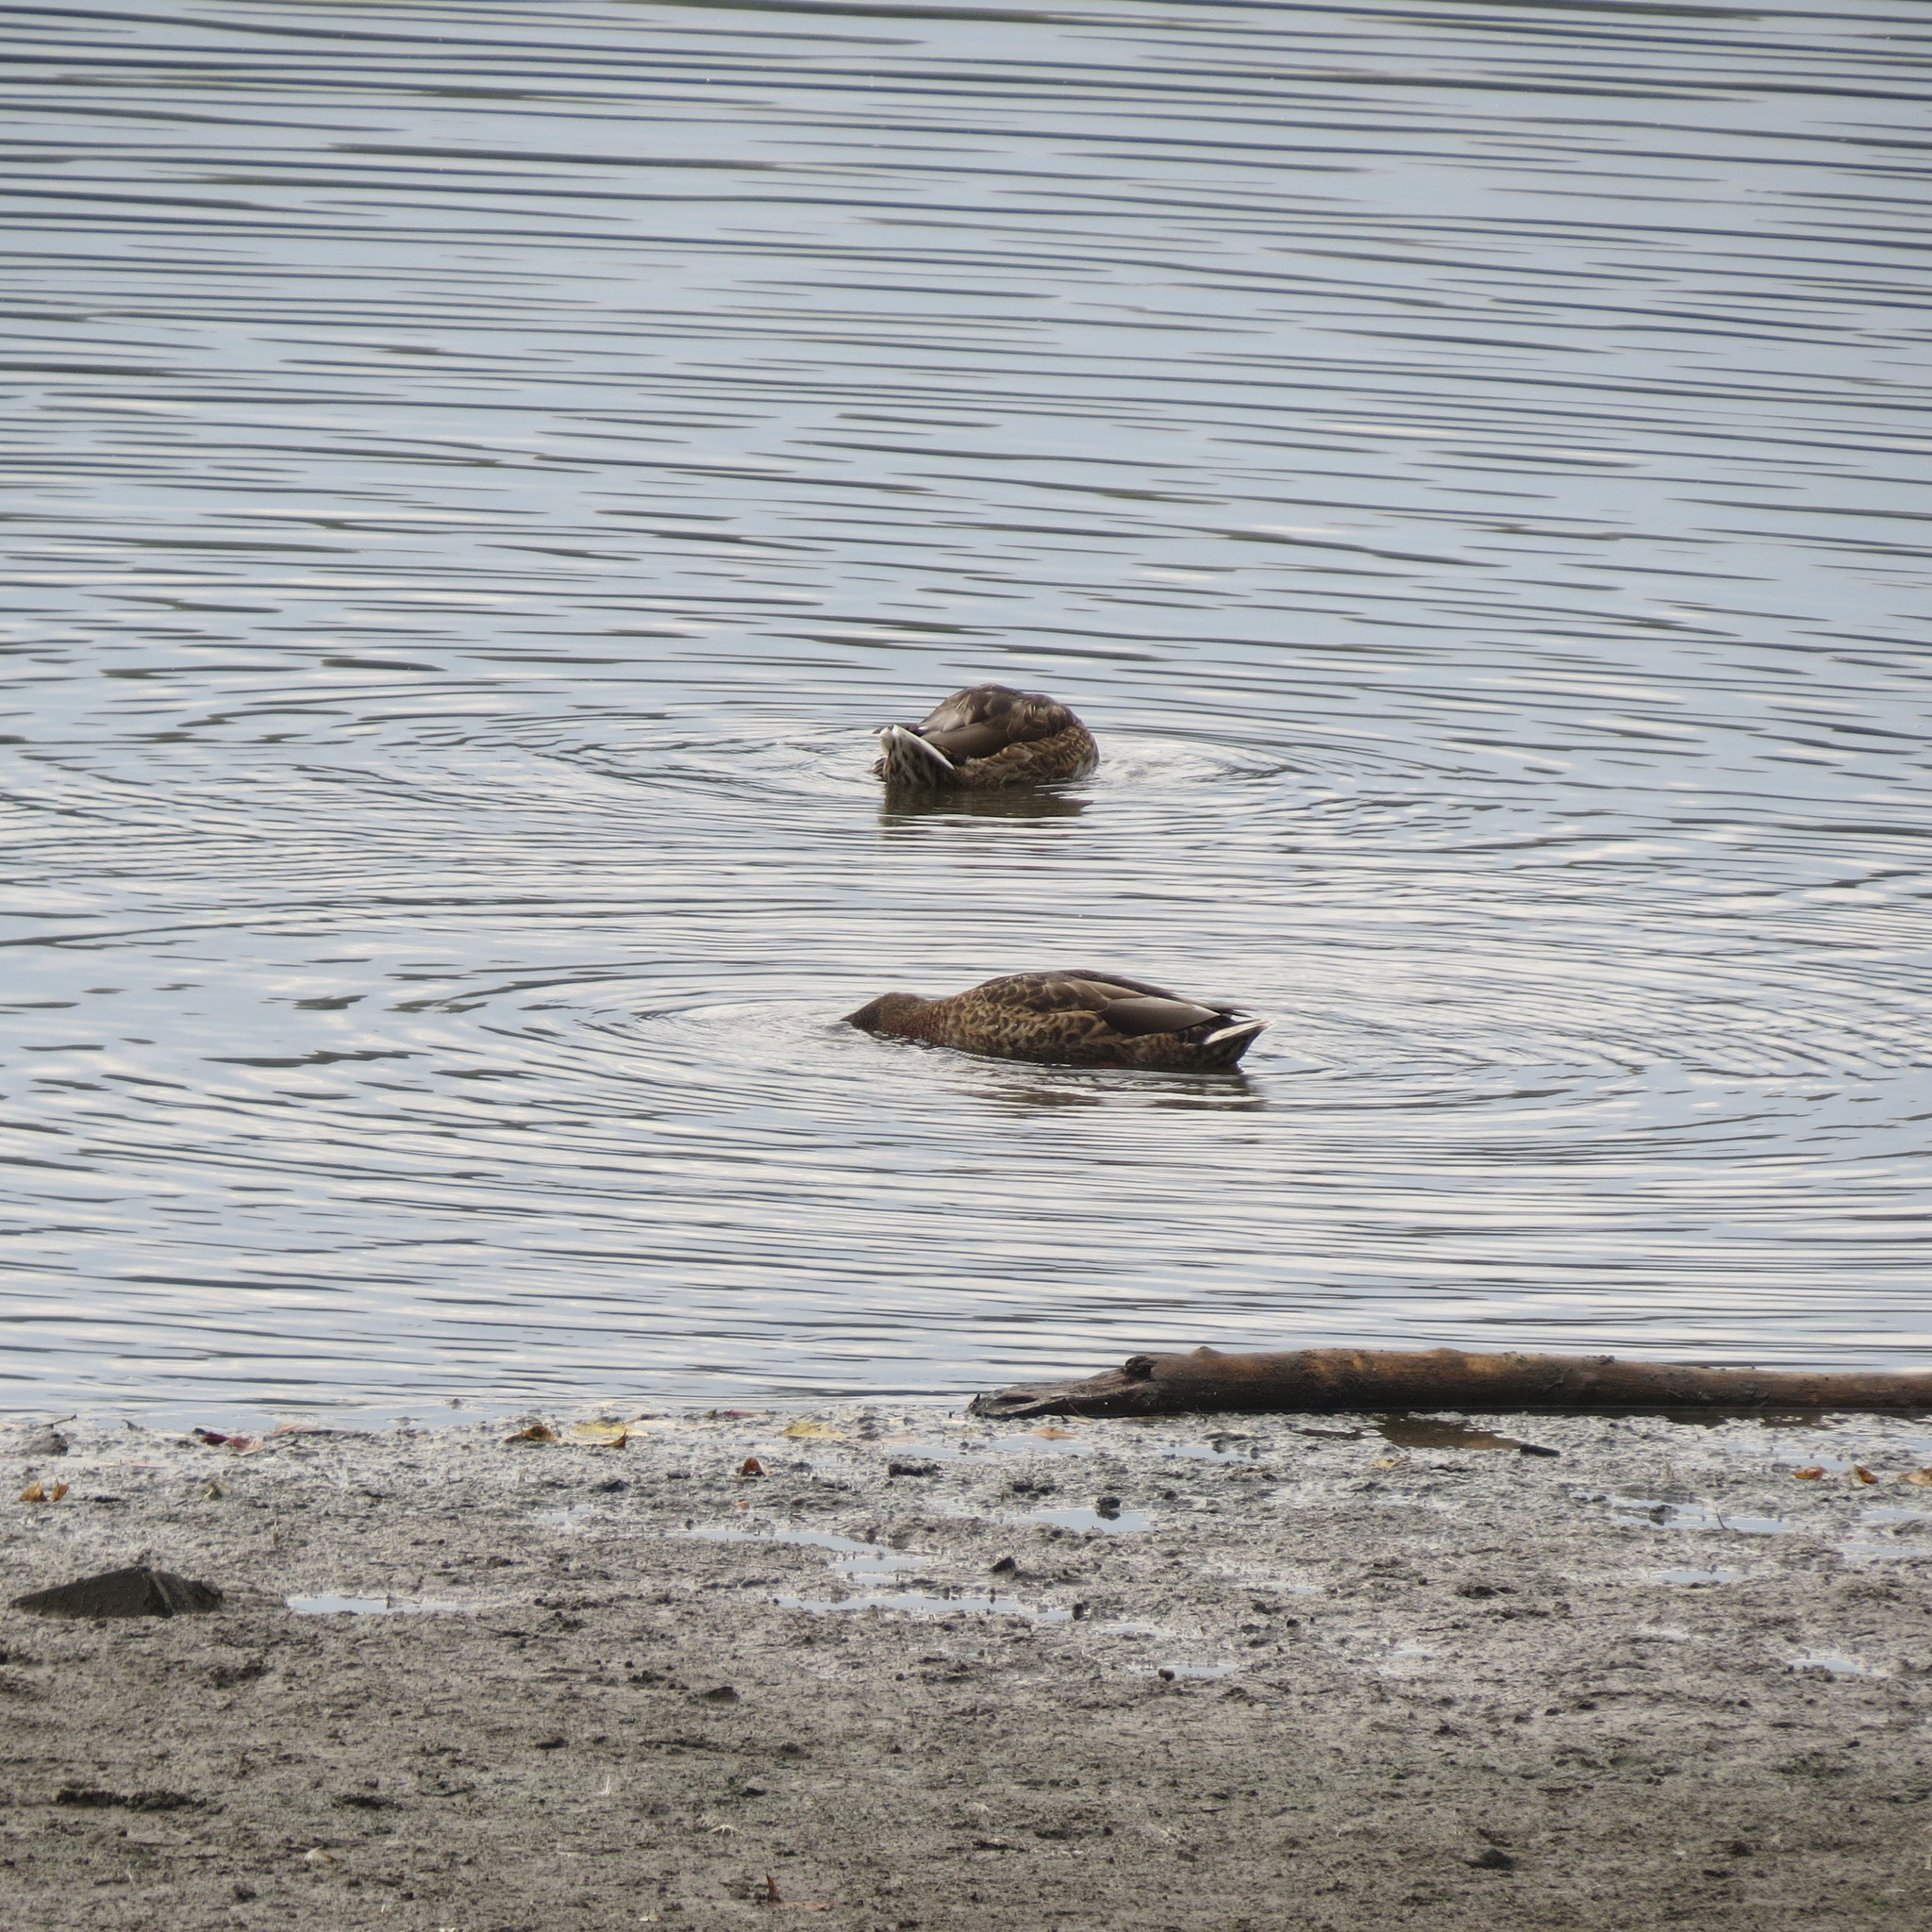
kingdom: Animalia
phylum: Chordata
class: Aves
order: Anseriformes
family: Anatidae
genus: Anas
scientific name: Anas platyrhynchos
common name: Mallard
